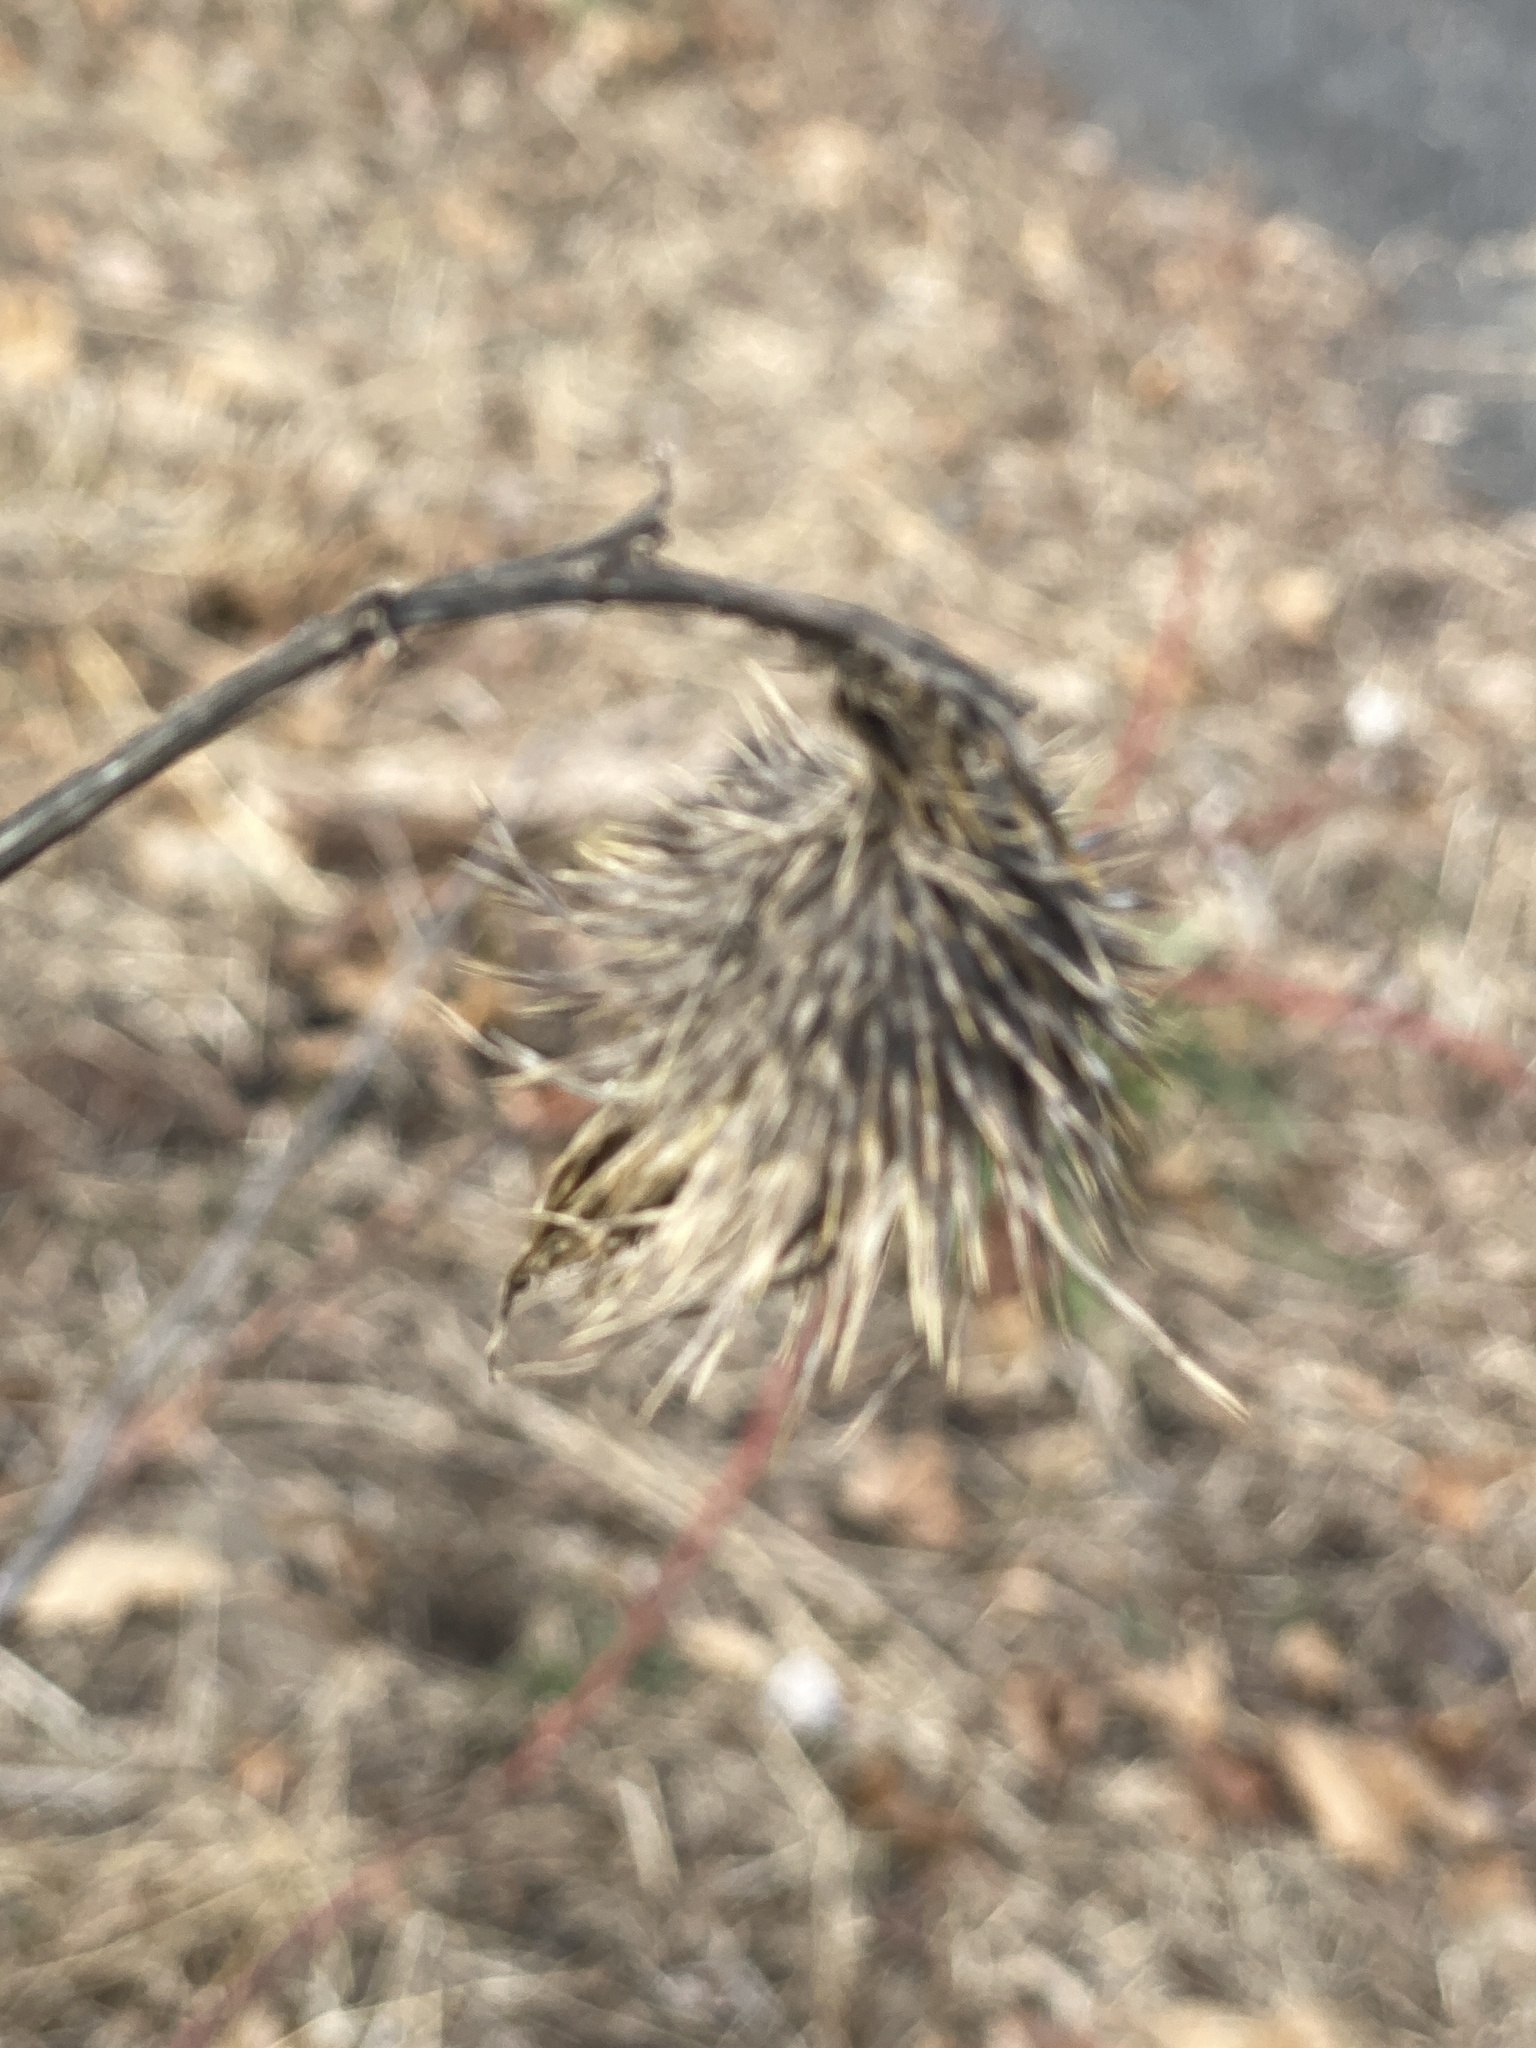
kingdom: Plantae
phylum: Tracheophyta
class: Magnoliopsida
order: Asterales
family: Asteraceae
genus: Cirsium
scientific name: Cirsium vulgare
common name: Bull thistle
